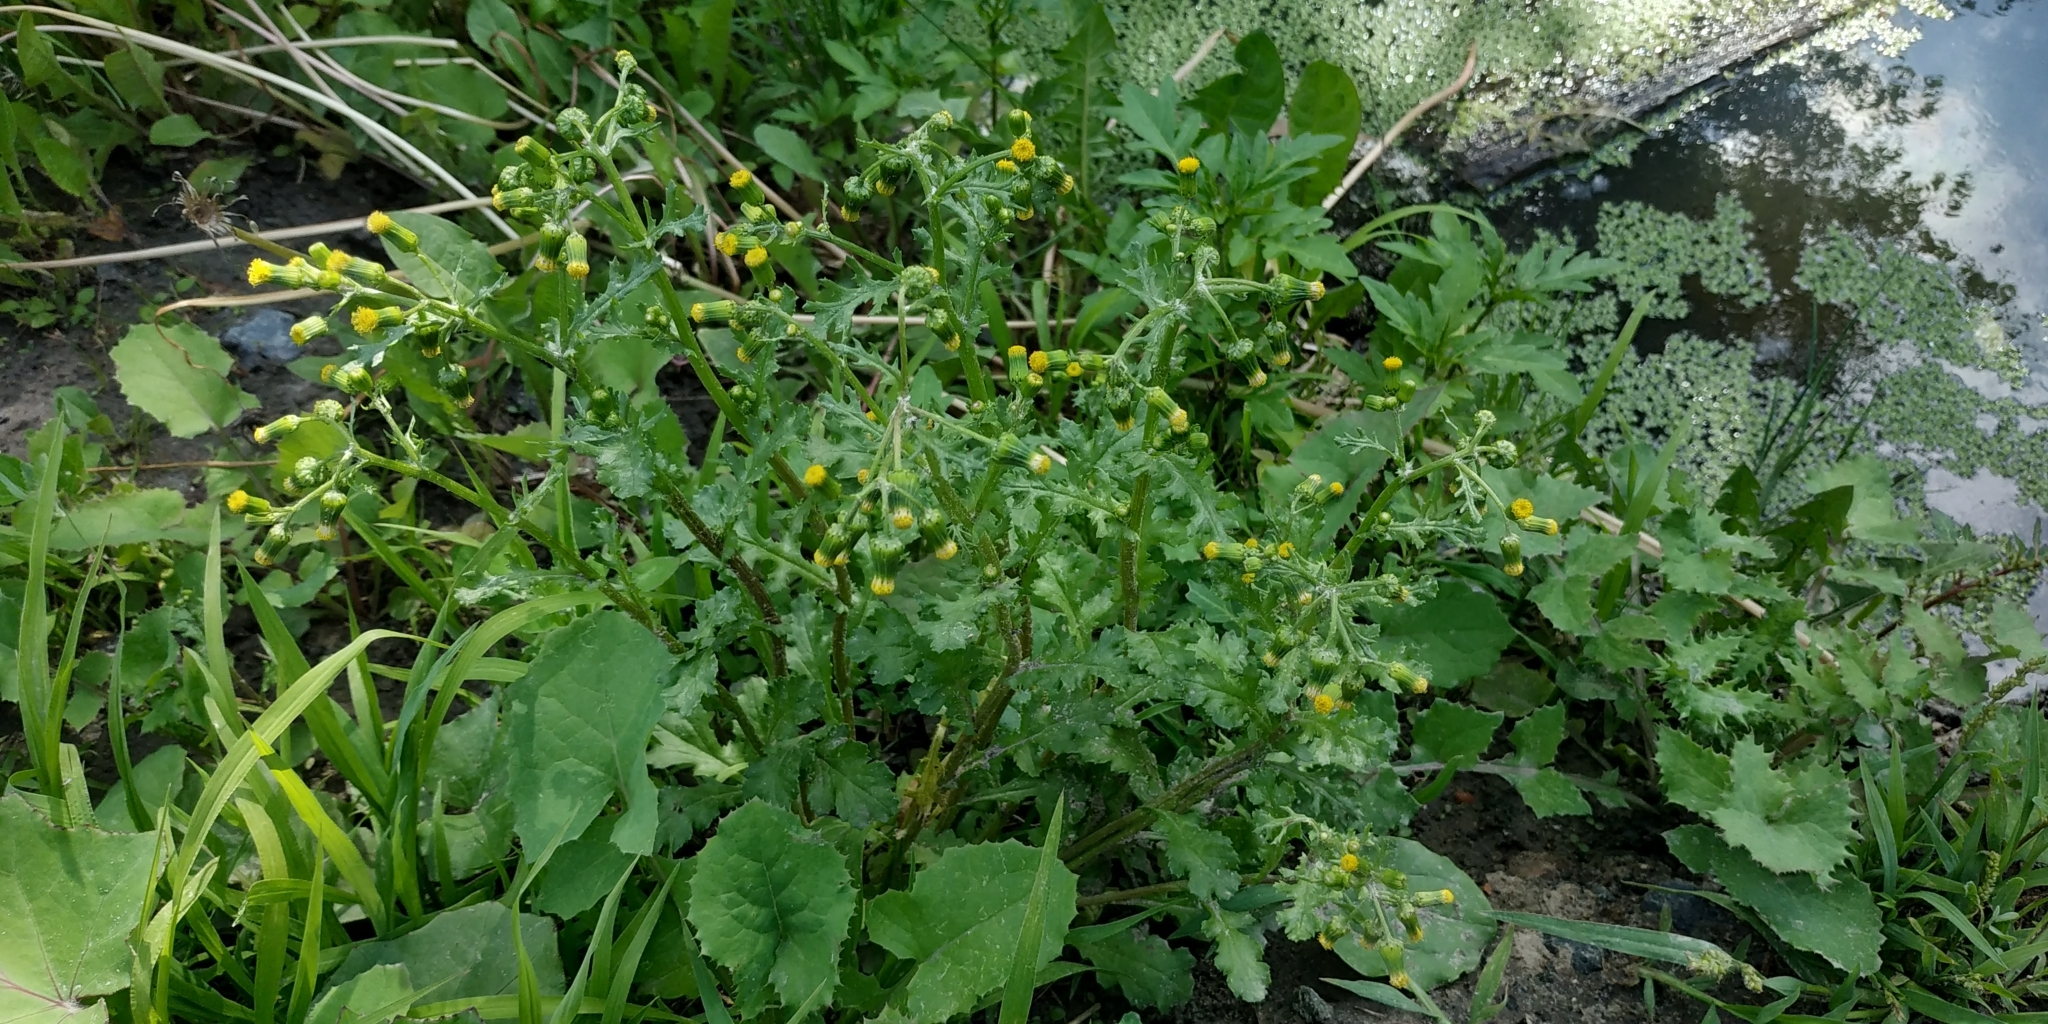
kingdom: Plantae
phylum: Tracheophyta
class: Magnoliopsida
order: Asterales
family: Asteraceae
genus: Senecio
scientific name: Senecio vulgaris
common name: Old-man-in-the-spring
